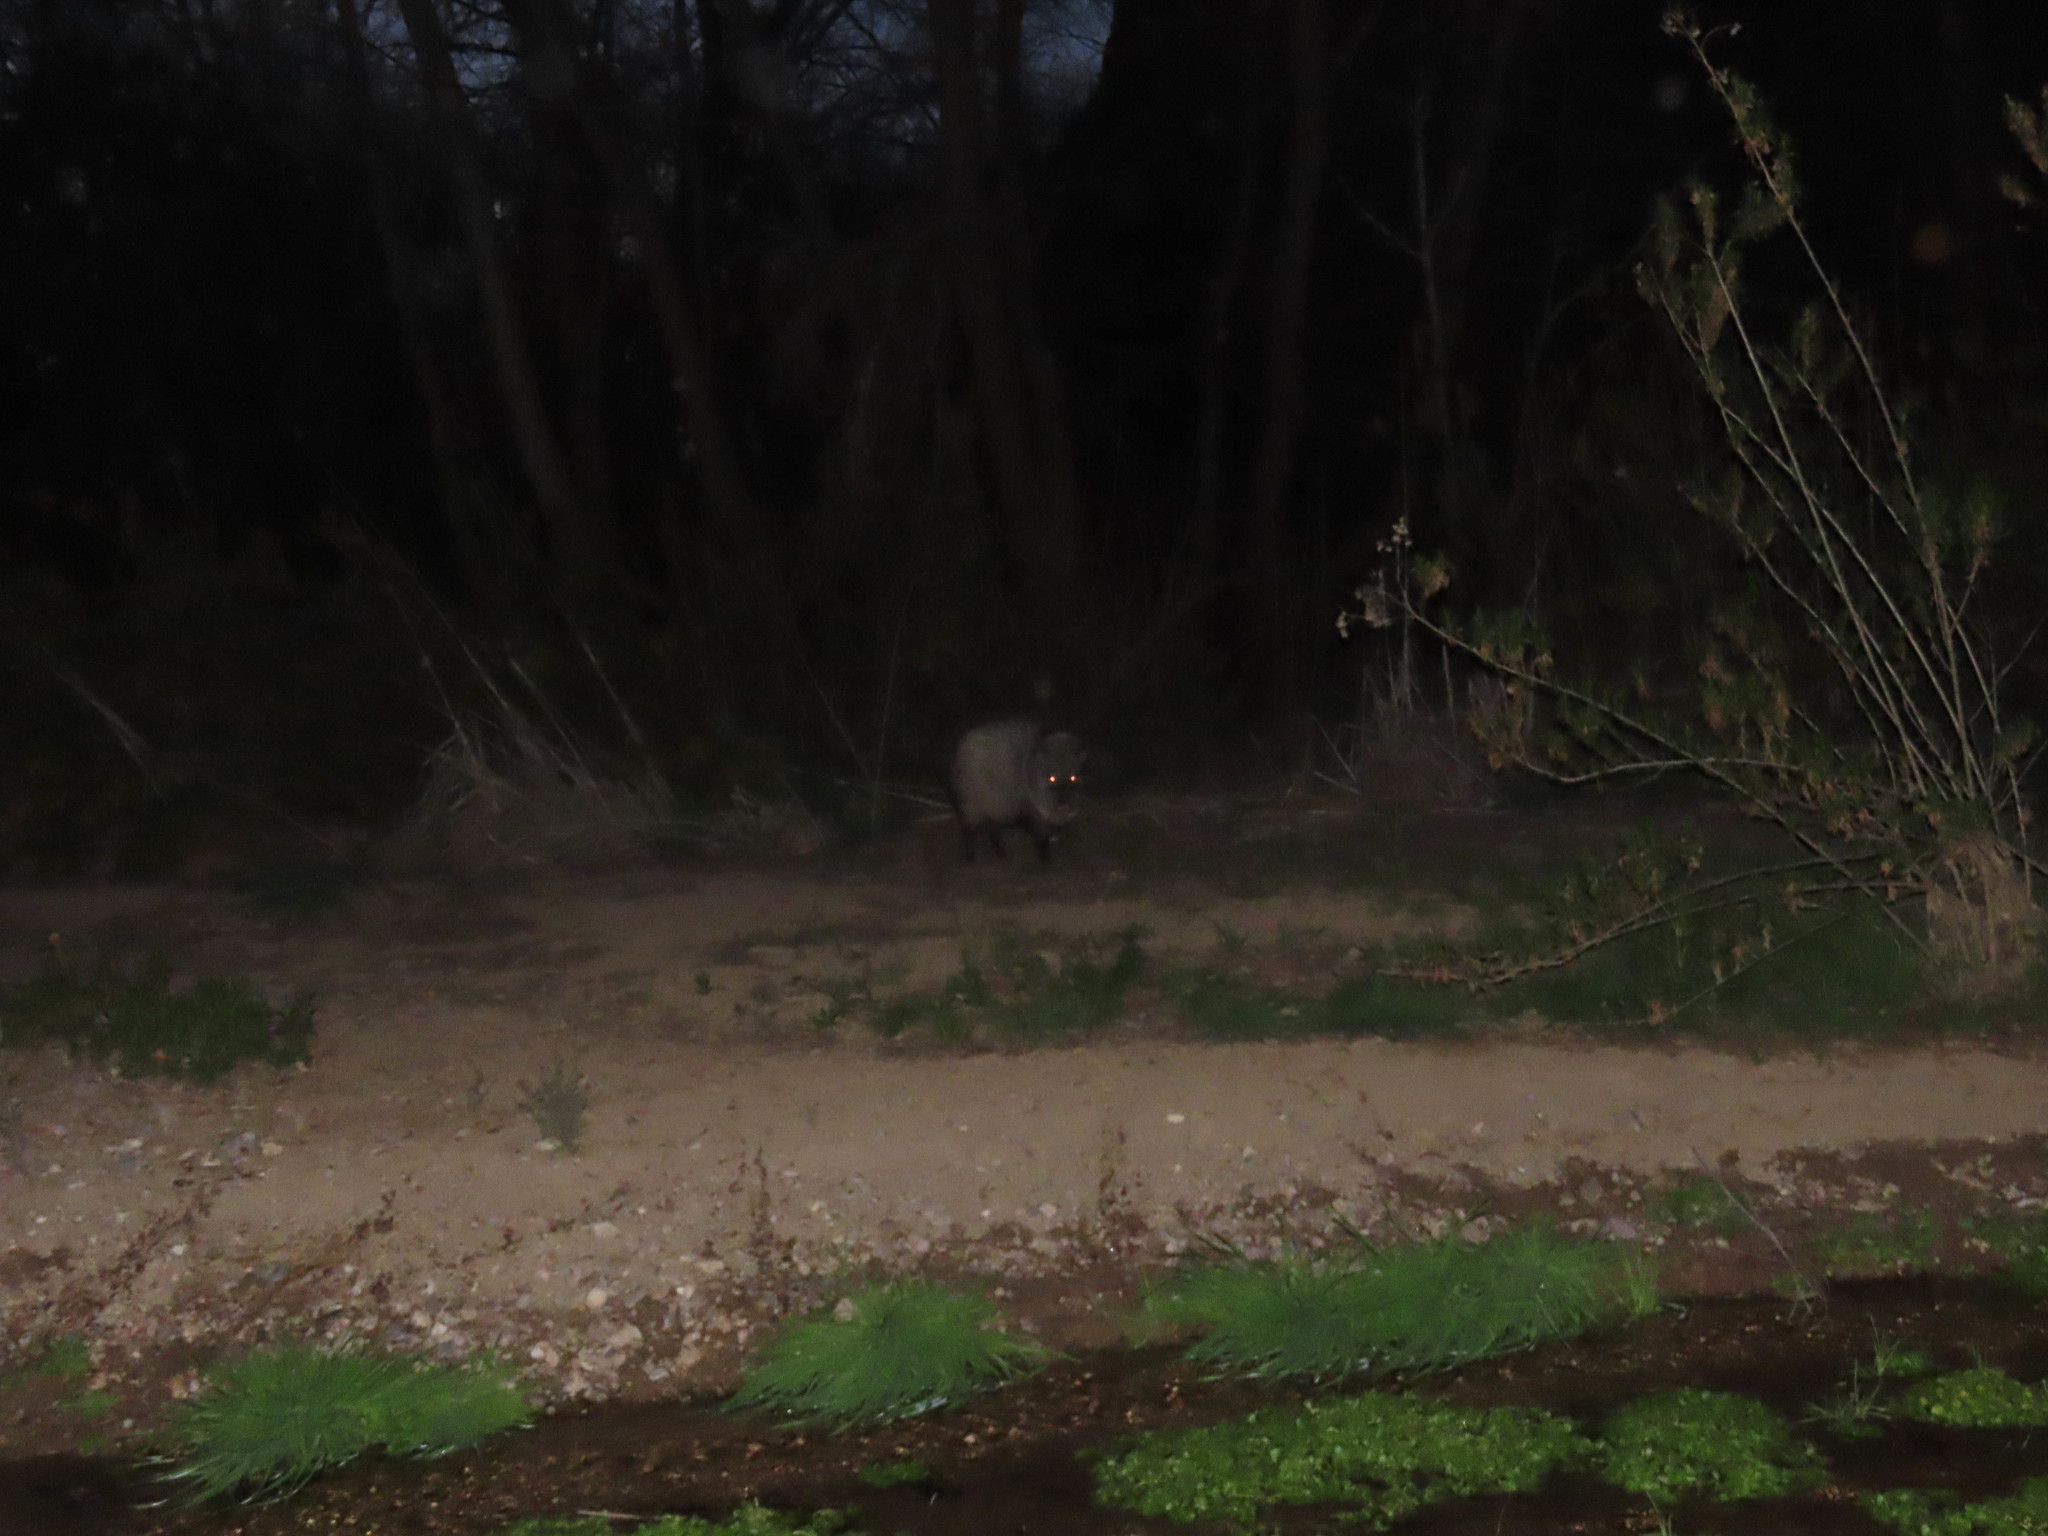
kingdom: Animalia
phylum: Chordata
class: Mammalia
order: Artiodactyla
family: Tayassuidae
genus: Pecari
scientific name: Pecari tajacu
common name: Collared peccary
